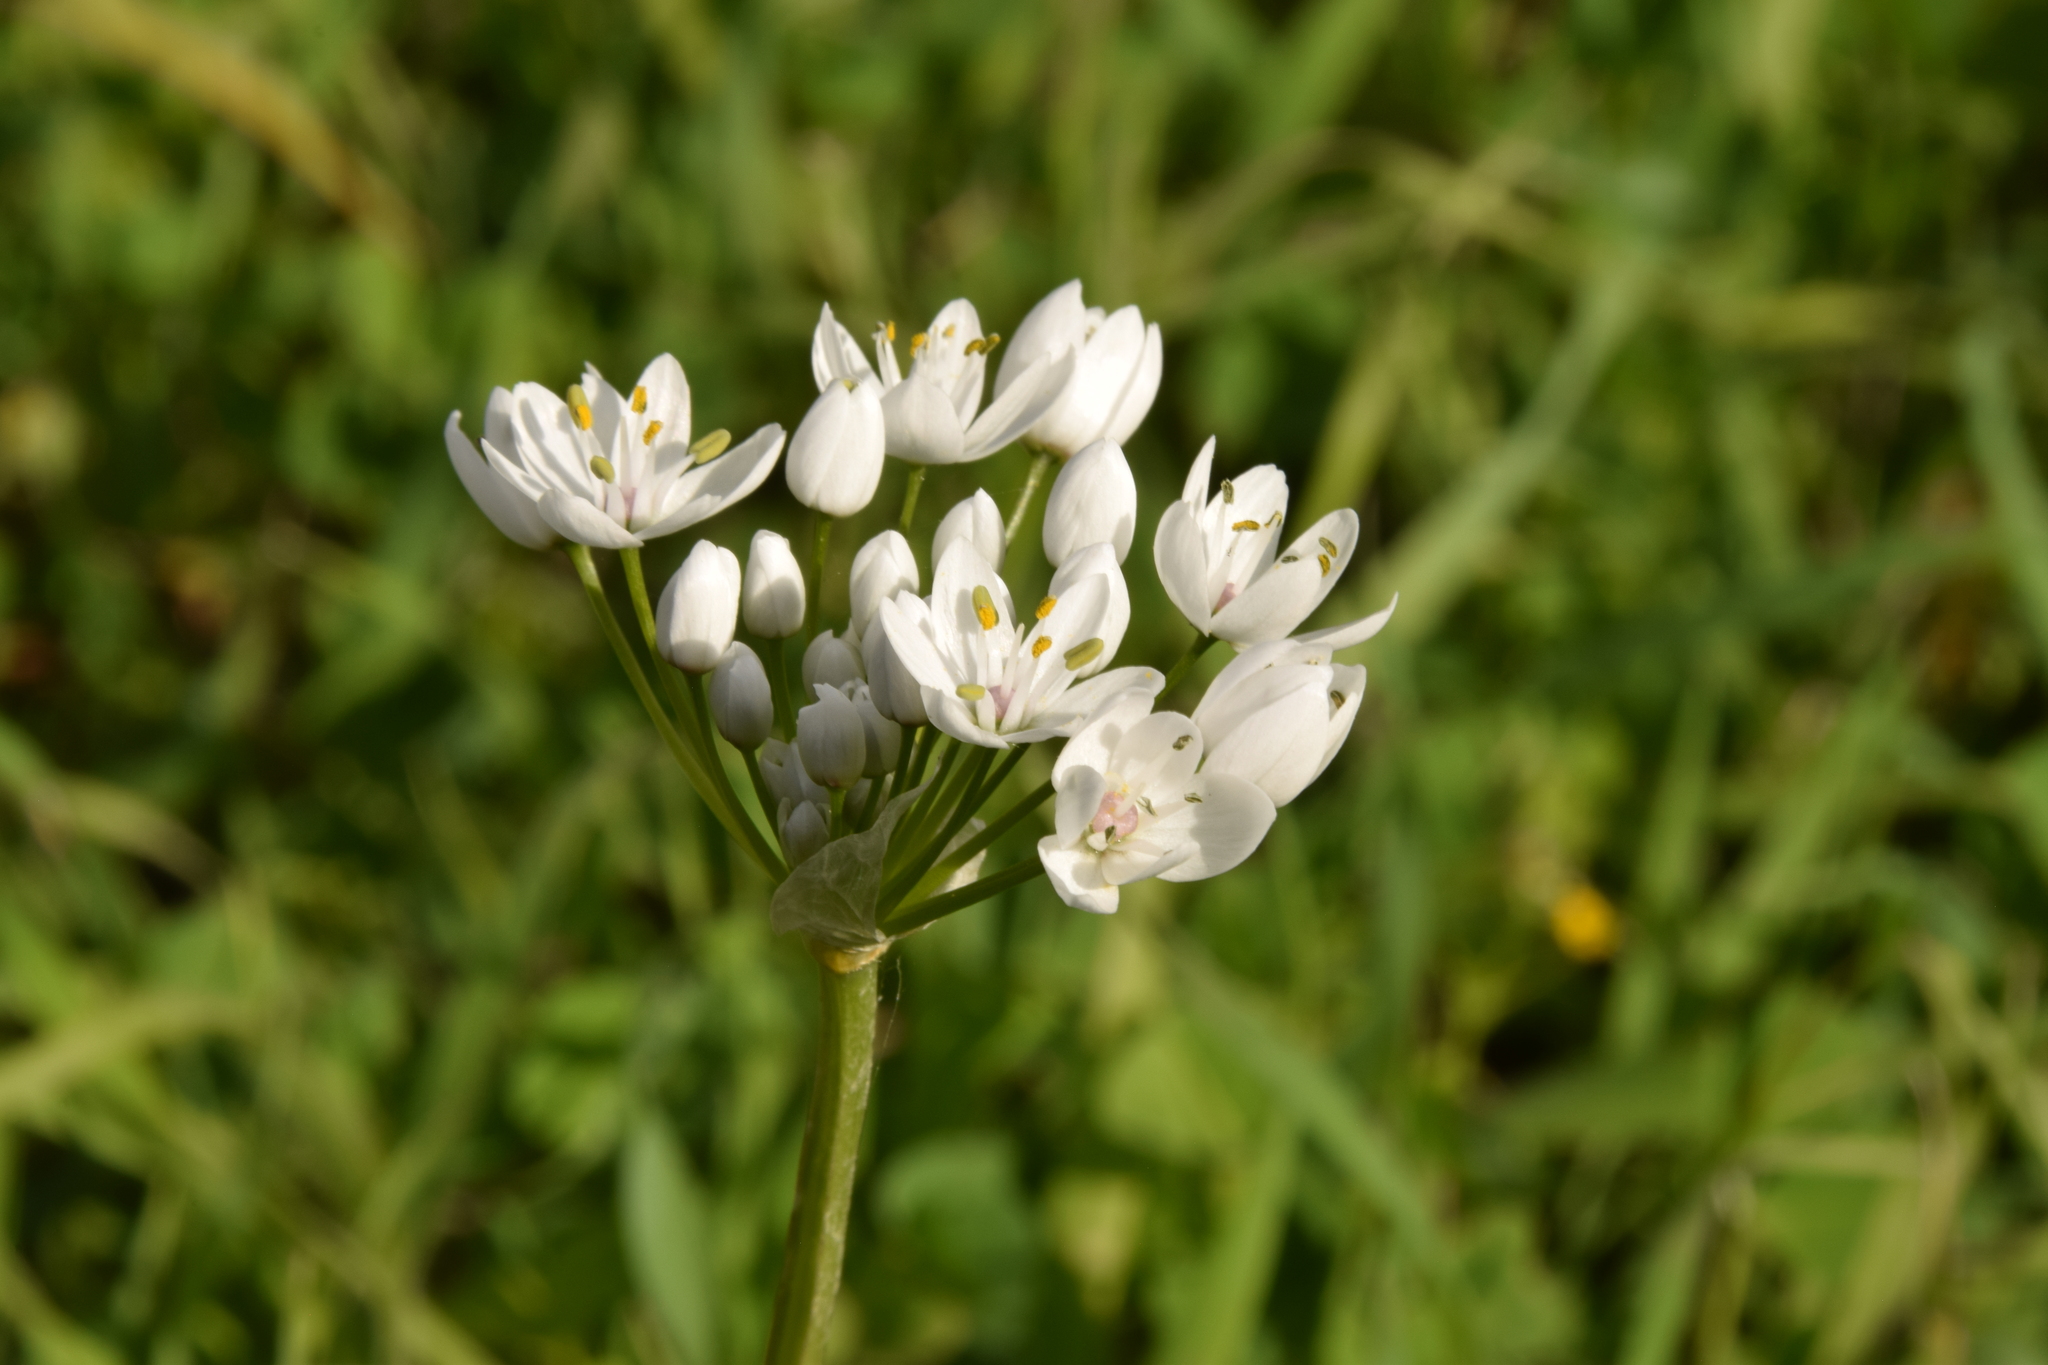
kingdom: Plantae
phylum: Tracheophyta
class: Liliopsida
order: Asparagales
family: Amaryllidaceae
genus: Allium
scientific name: Allium neapolitanum
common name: Neapolitan garlic
